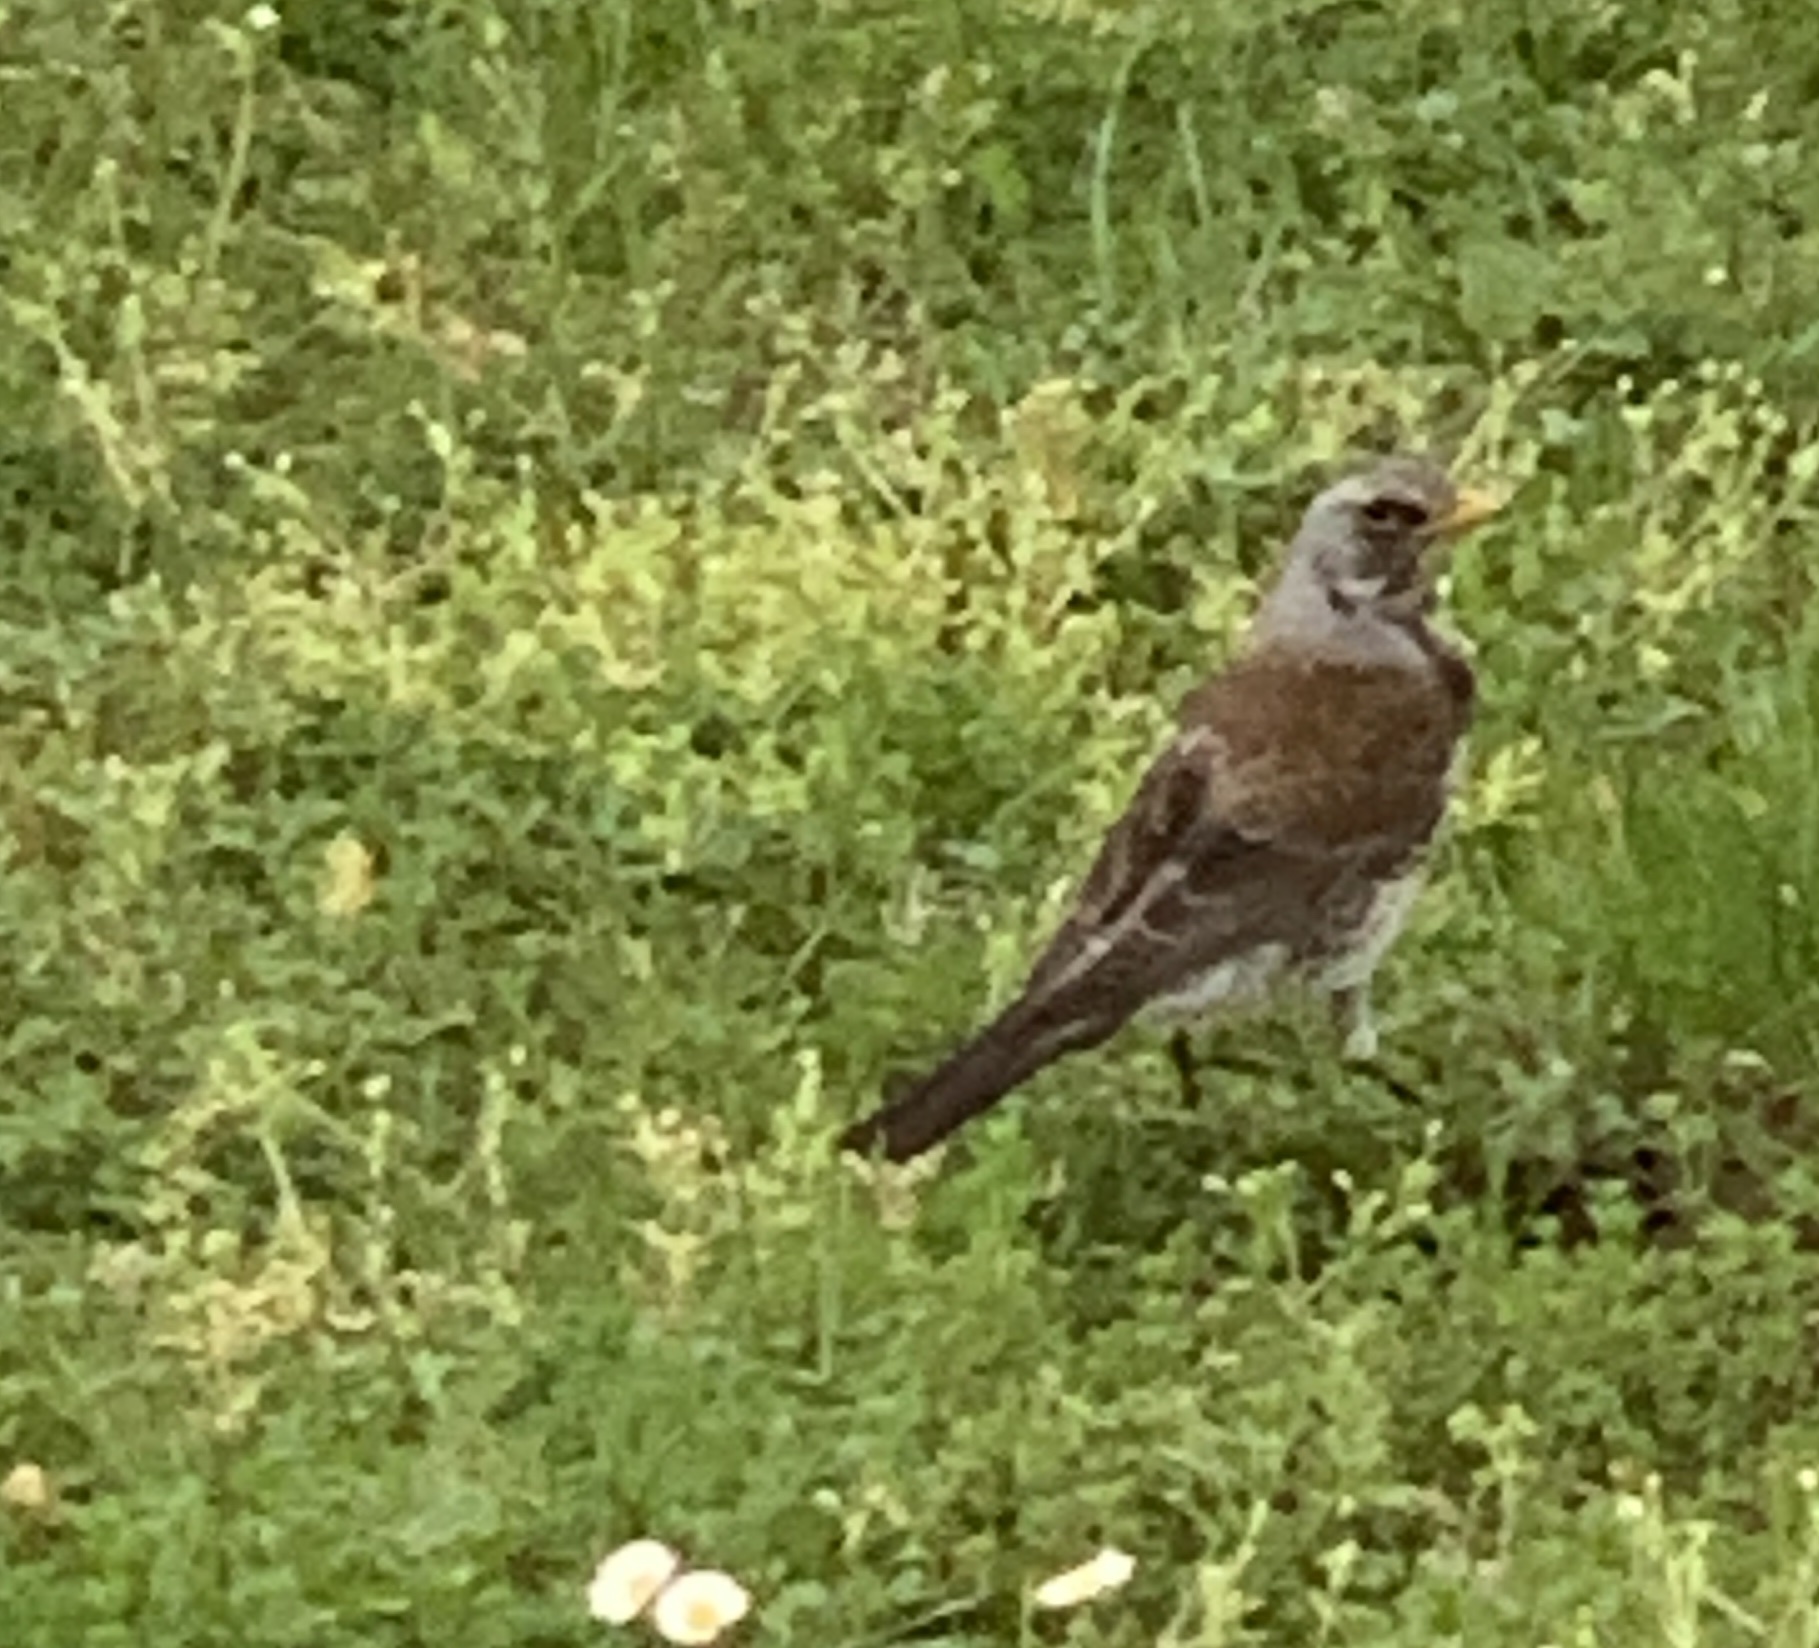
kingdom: Animalia
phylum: Chordata
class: Aves
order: Passeriformes
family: Turdidae
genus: Turdus
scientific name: Turdus pilaris
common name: Fieldfare
